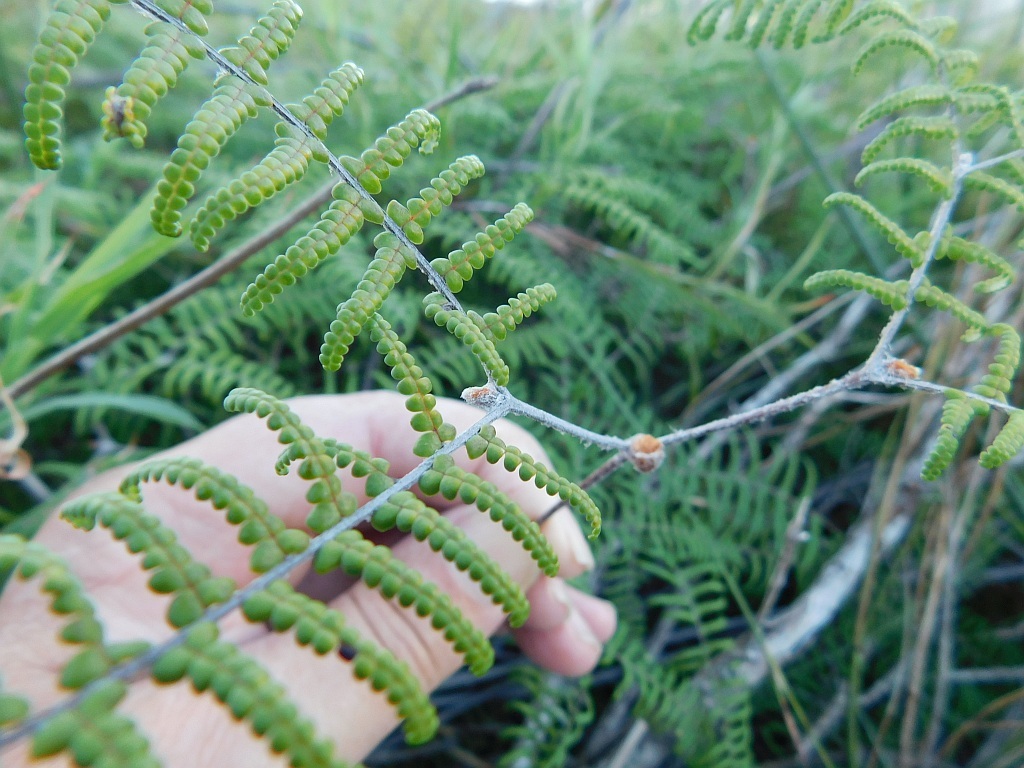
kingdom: Plantae
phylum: Tracheophyta
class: Polypodiopsida
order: Gleicheniales
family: Gleicheniaceae
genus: Gleichenia
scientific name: Gleichenia polypodioides
